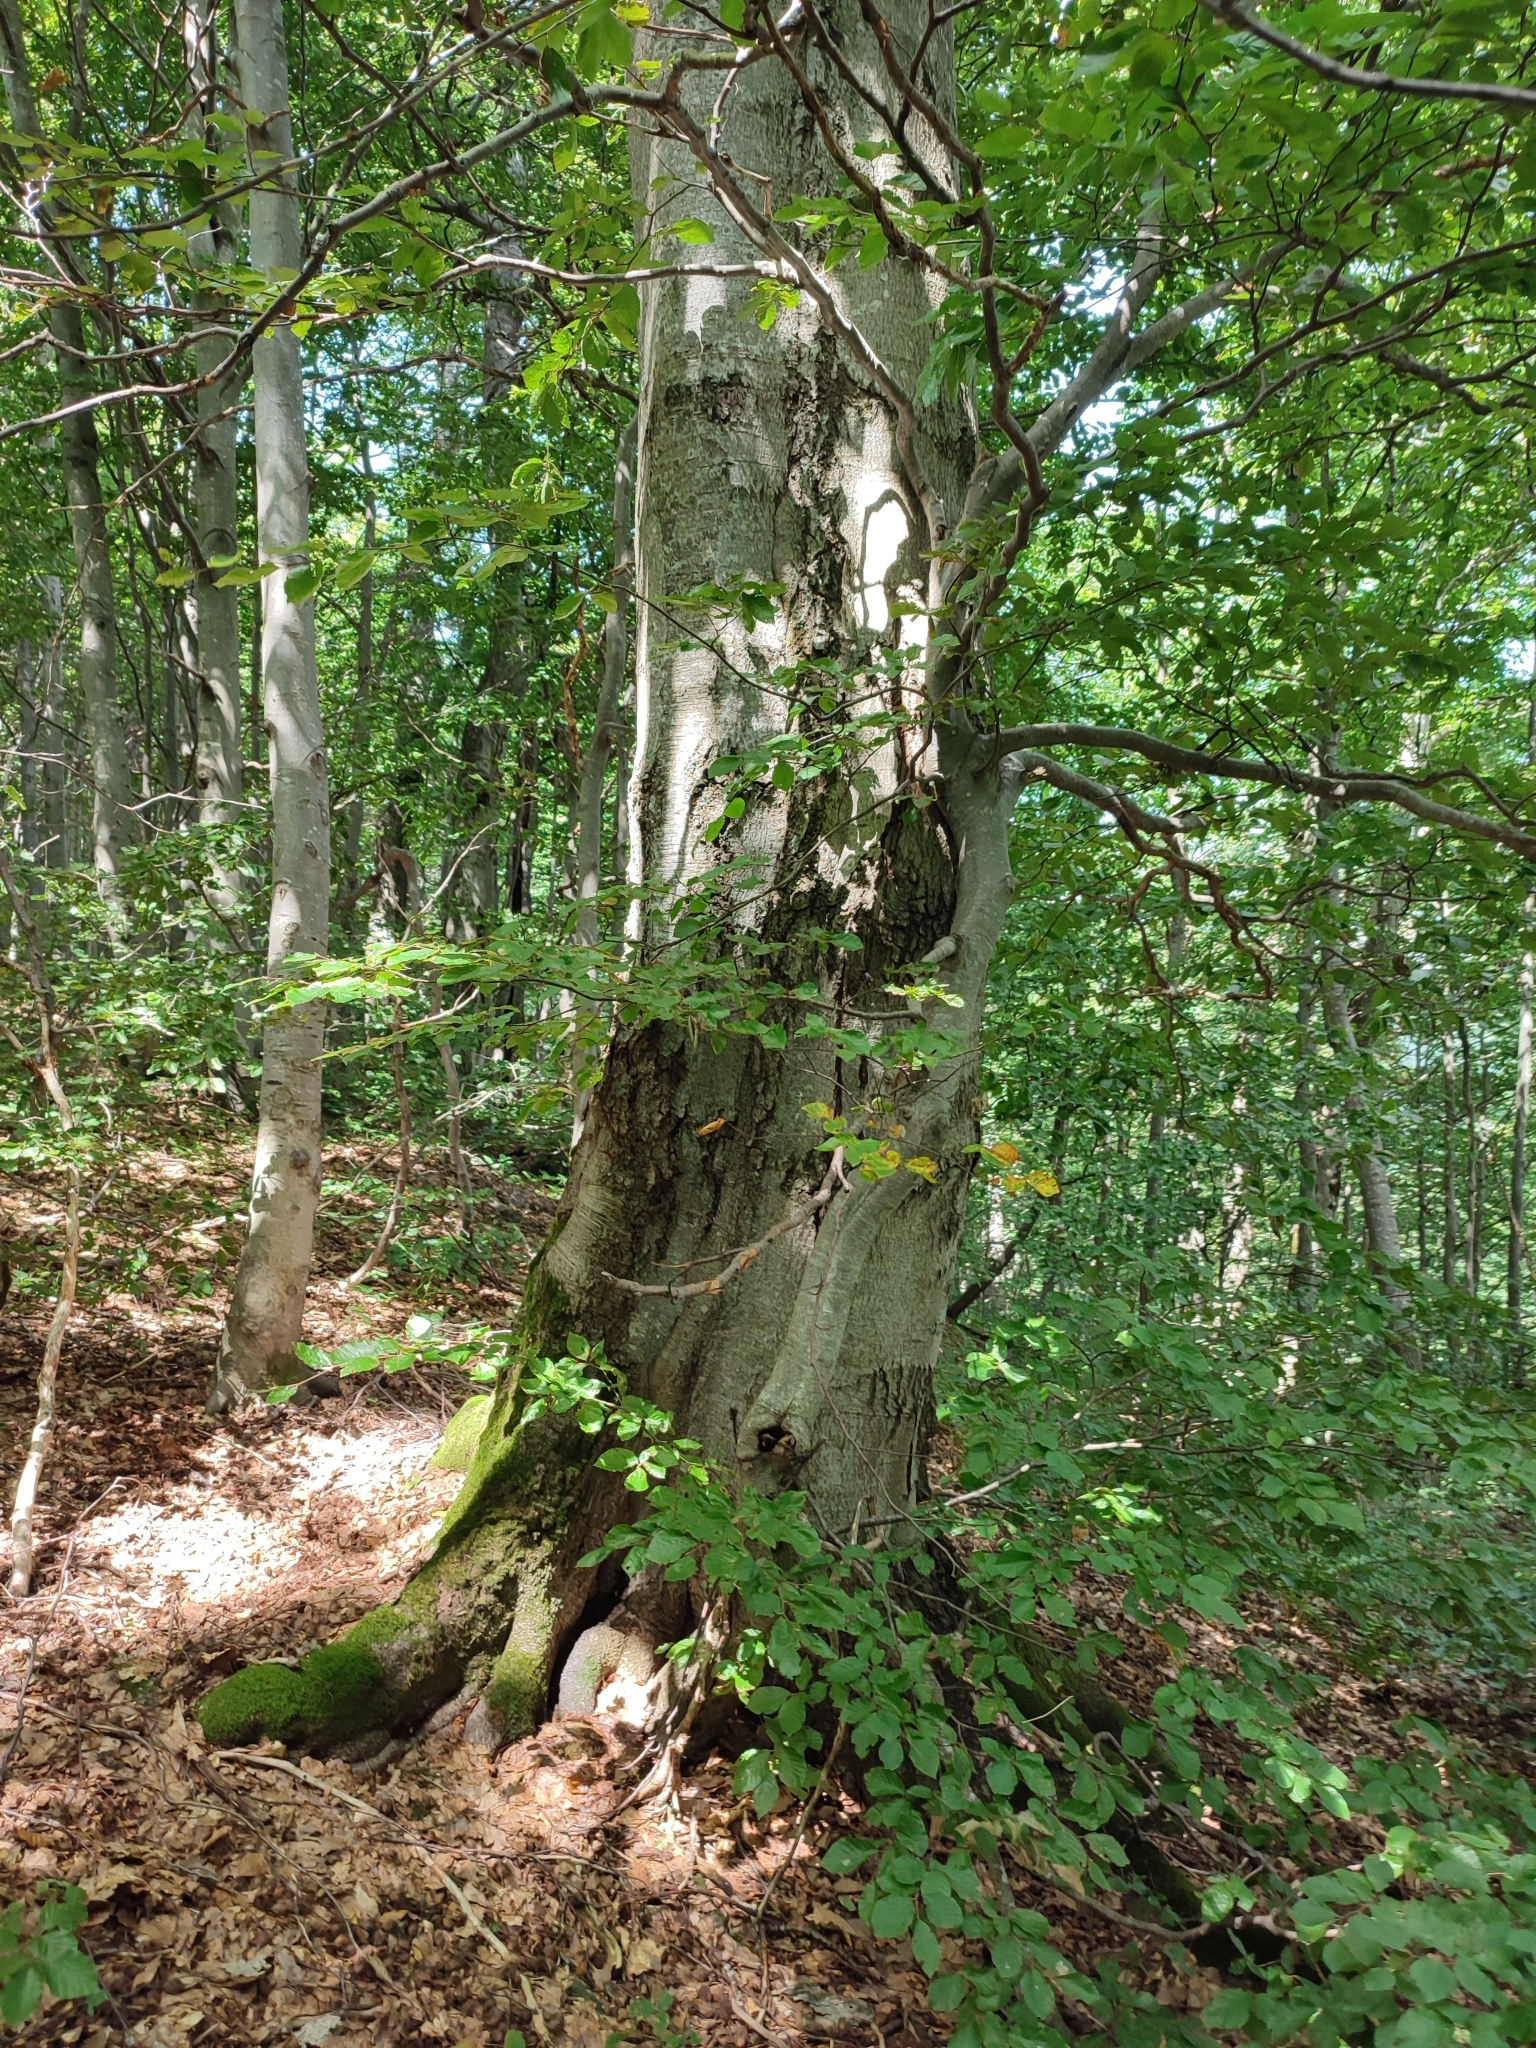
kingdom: Plantae
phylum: Tracheophyta
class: Magnoliopsida
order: Fagales
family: Fagaceae
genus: Fagus
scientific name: Fagus sylvatica
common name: Beech
